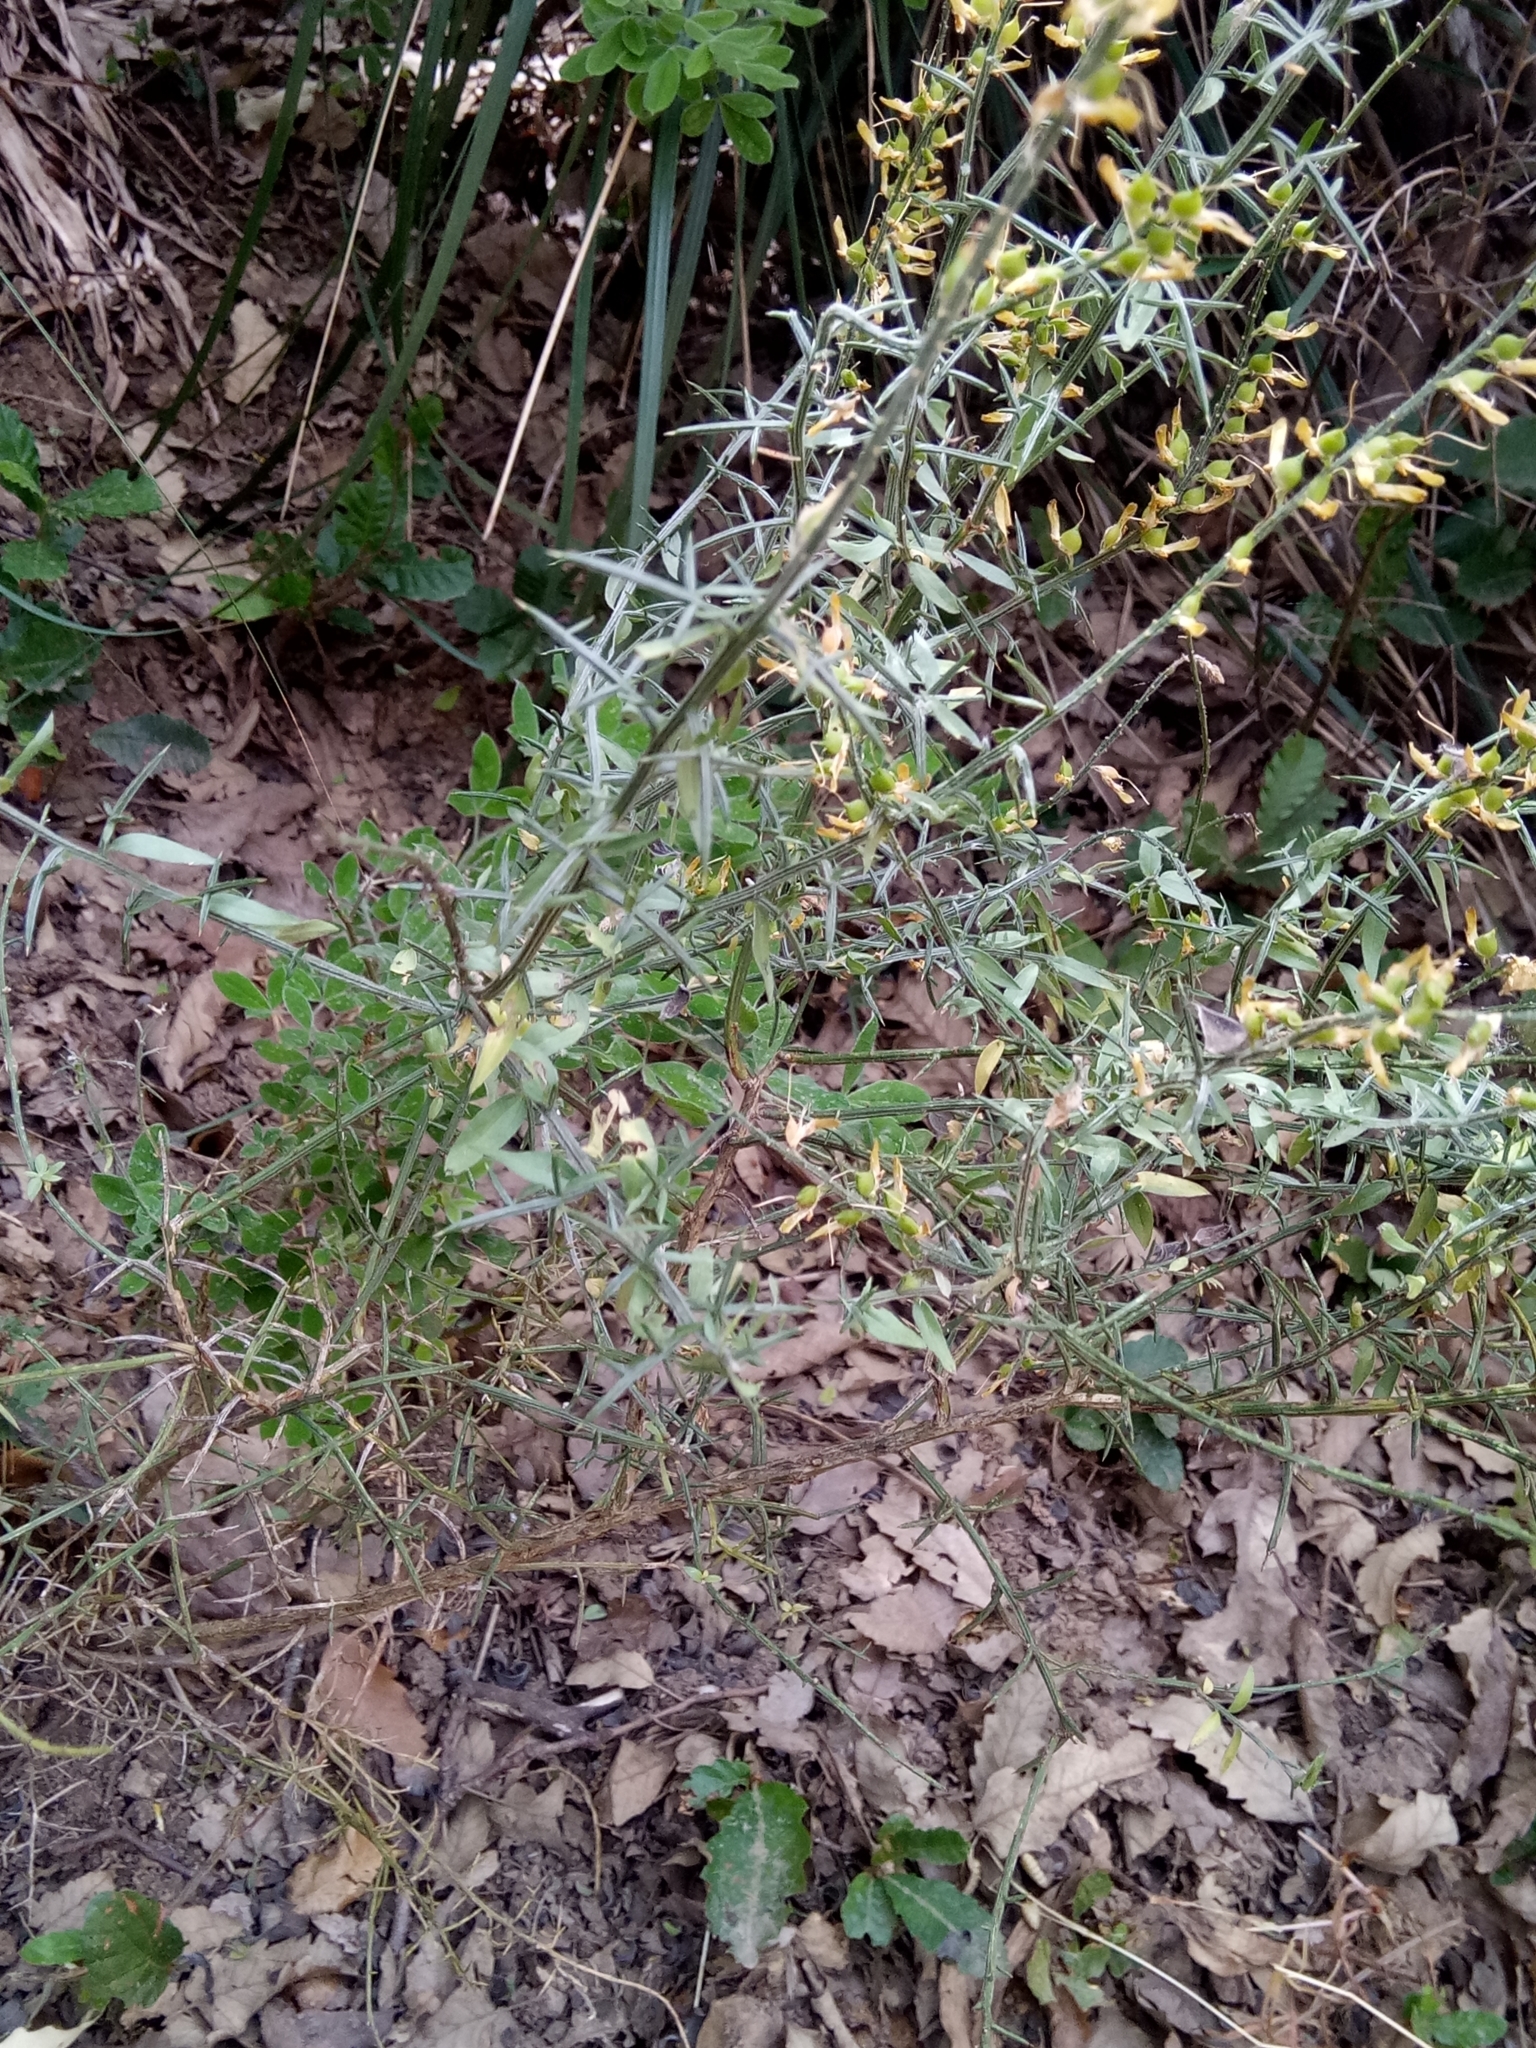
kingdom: Plantae
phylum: Tracheophyta
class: Magnoliopsida
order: Fabales
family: Fabaceae
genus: Genista
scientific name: Genista tricuspidata
